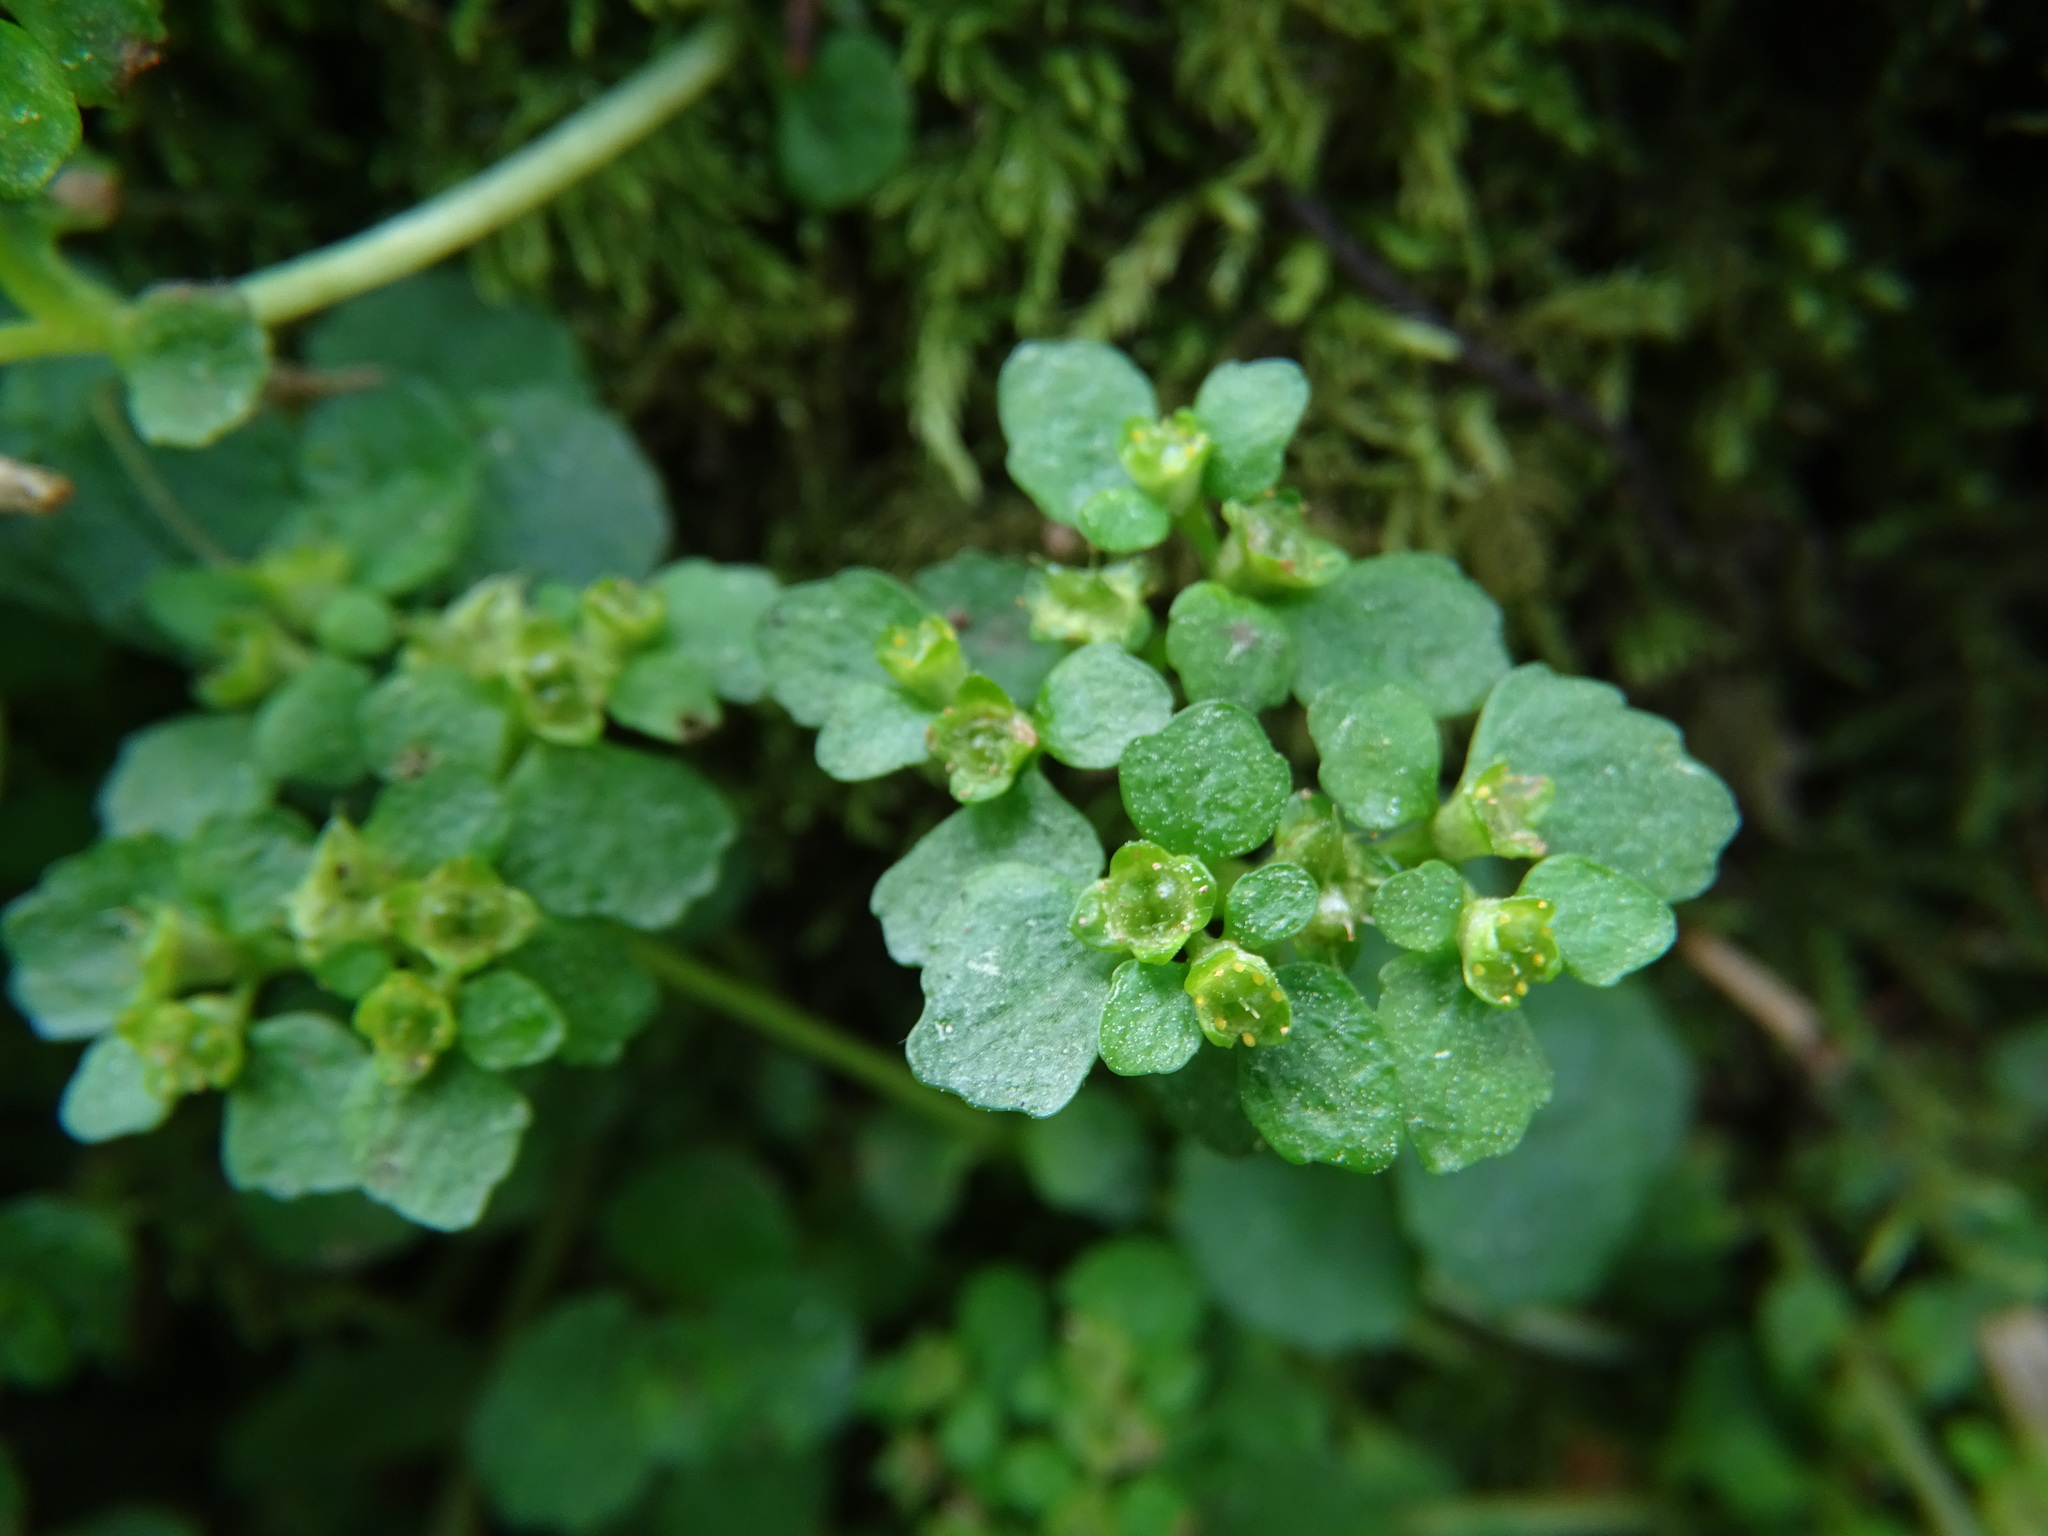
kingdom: Plantae
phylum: Tracheophyta
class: Magnoliopsida
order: Saxifragales
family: Saxifragaceae
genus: Chrysosplenium
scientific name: Chrysosplenium oppositifolium
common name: Opposite-leaved golden-saxifrage
